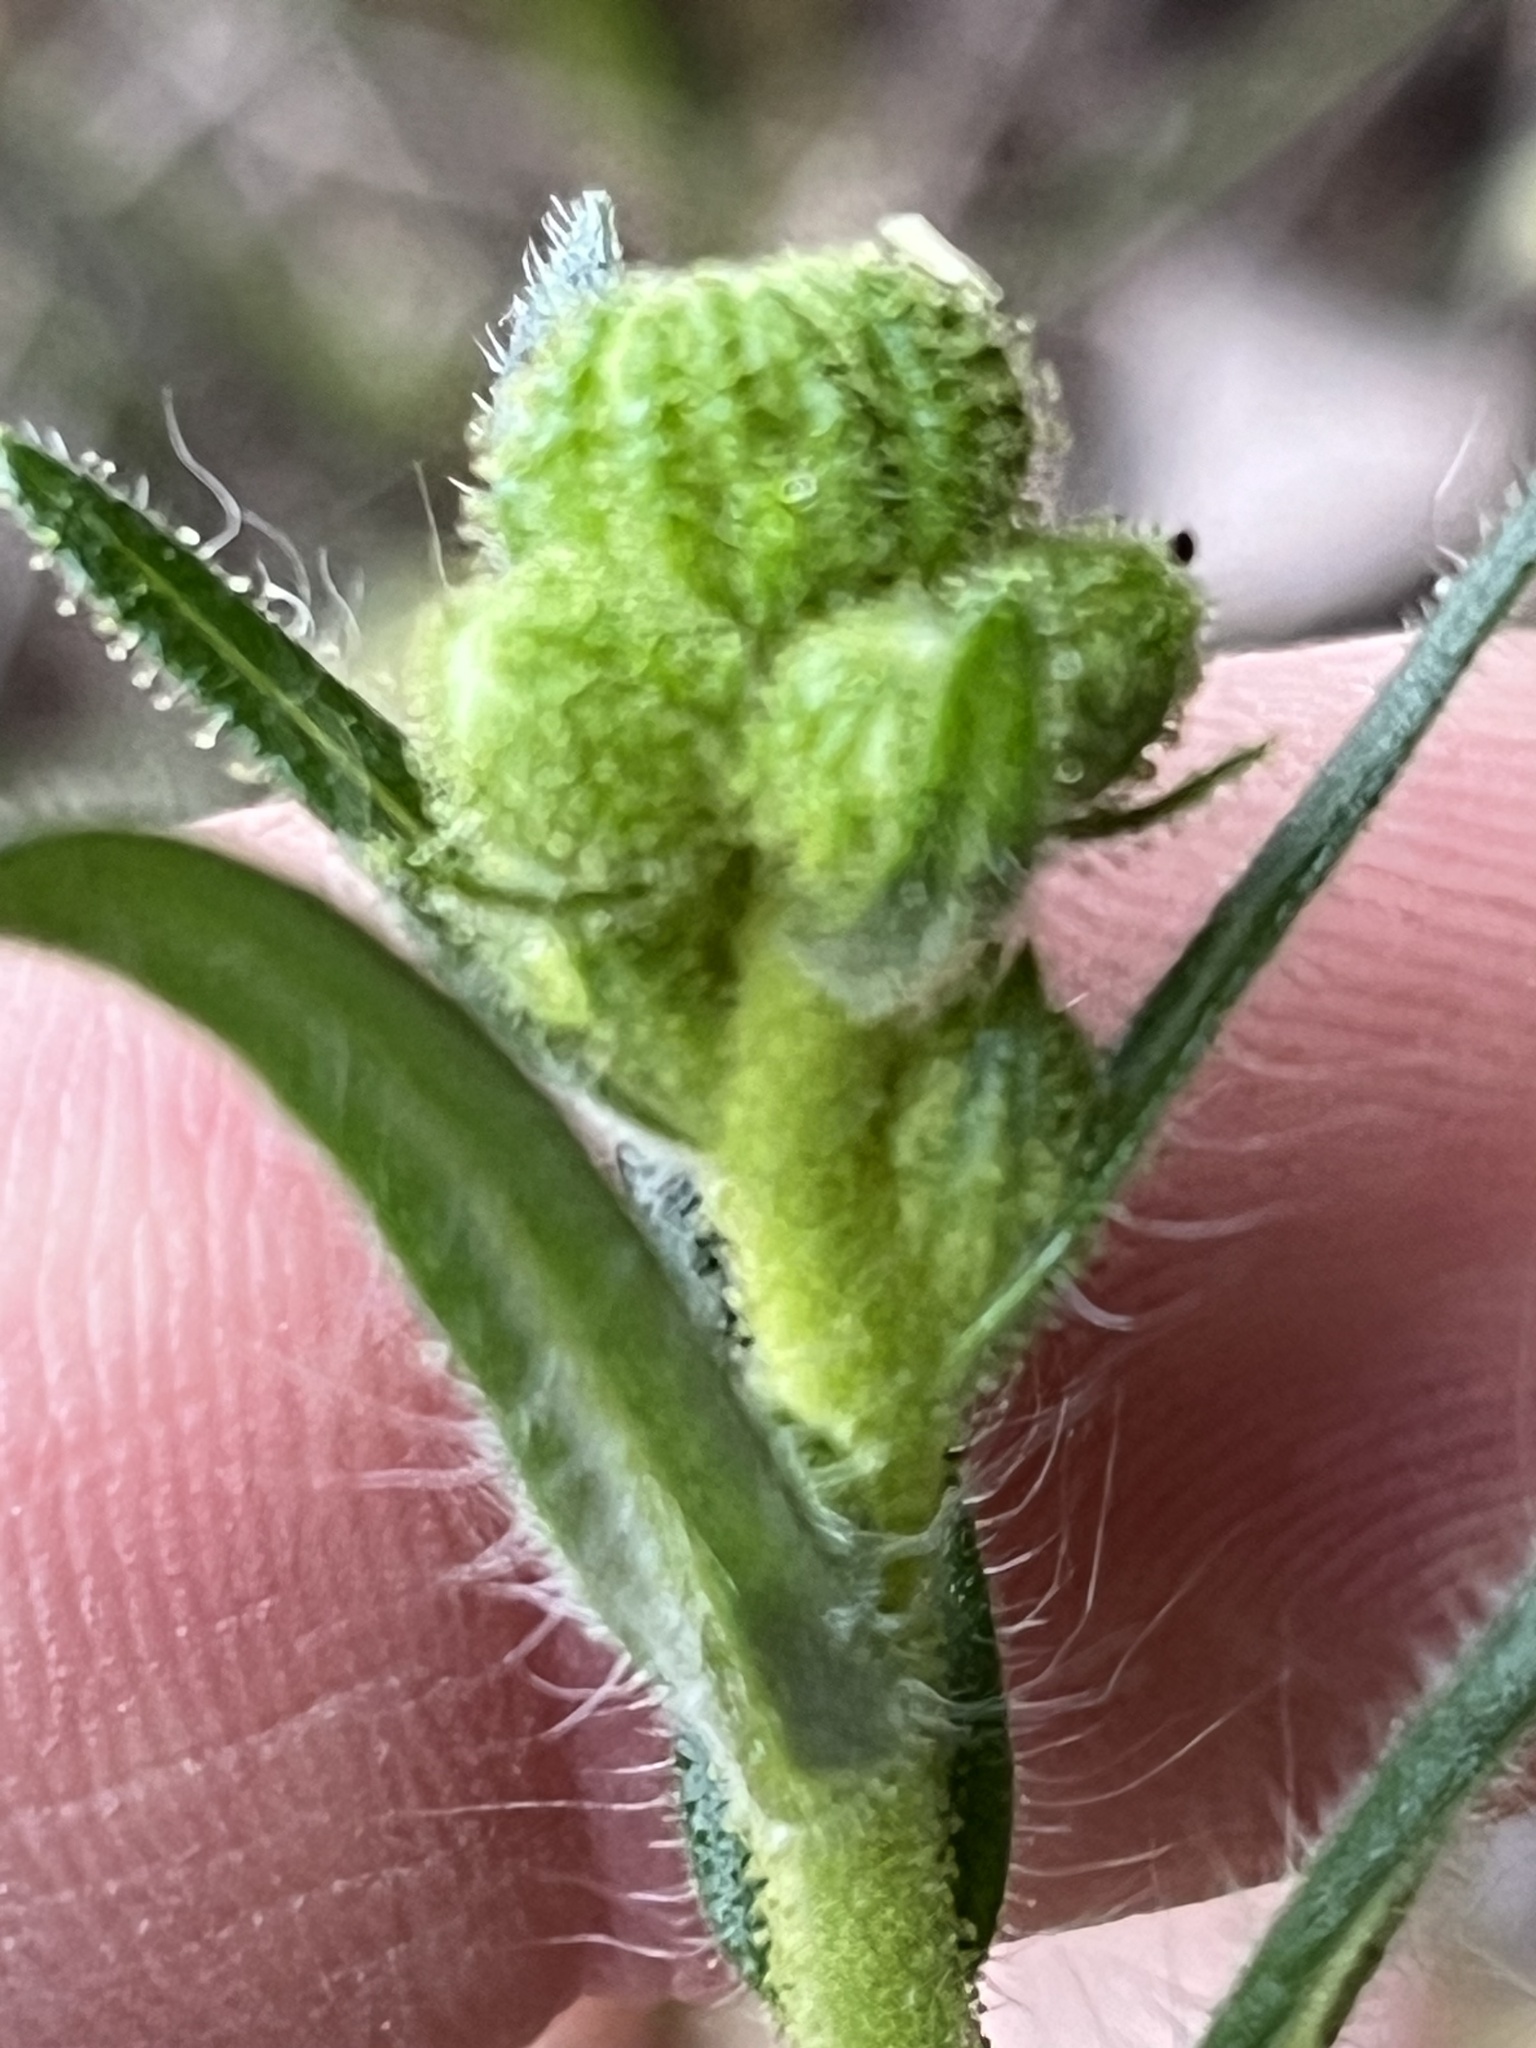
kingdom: Plantae
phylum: Tracheophyta
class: Magnoliopsida
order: Asterales
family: Asteraceae
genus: Anisocarpus
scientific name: Anisocarpus madioides
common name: Woodland madia
